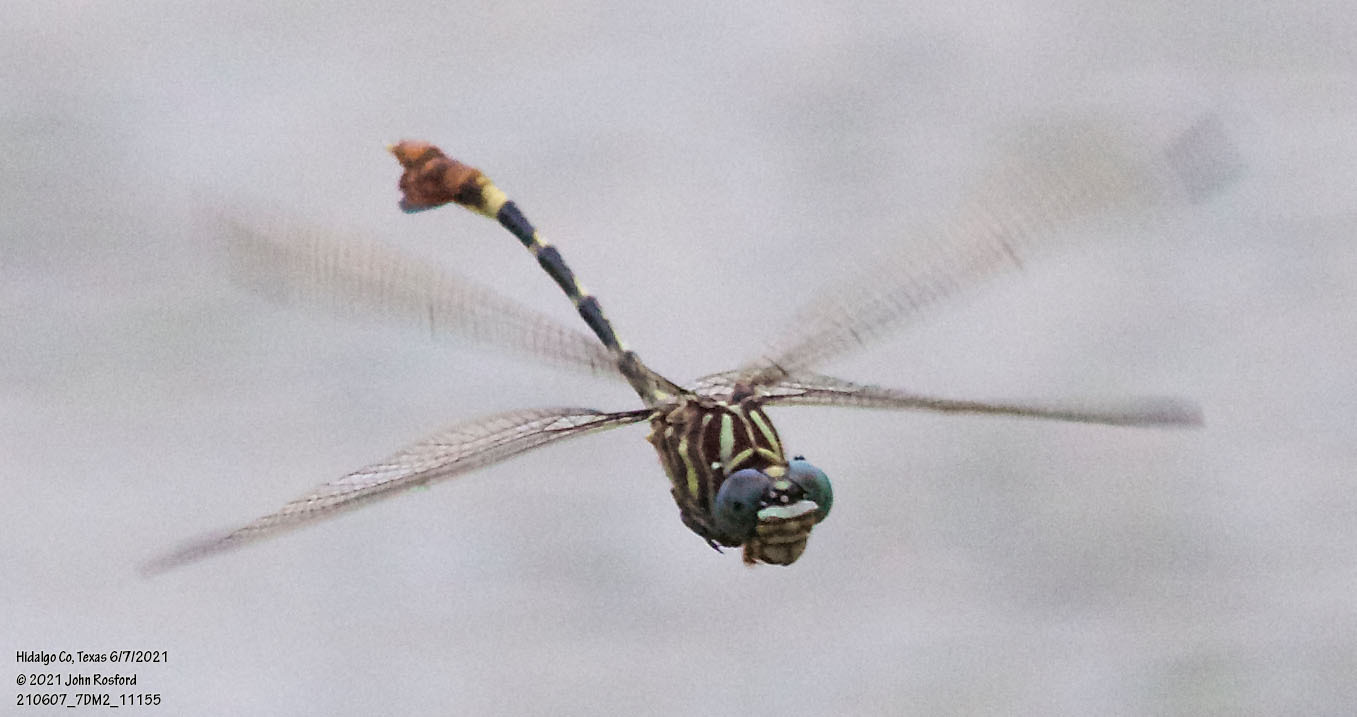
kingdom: Animalia
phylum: Arthropoda
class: Insecta
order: Odonata
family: Gomphidae
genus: Phyllogomphoides
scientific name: Phyllogomphoides albrighti
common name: Five-striped leaftail
